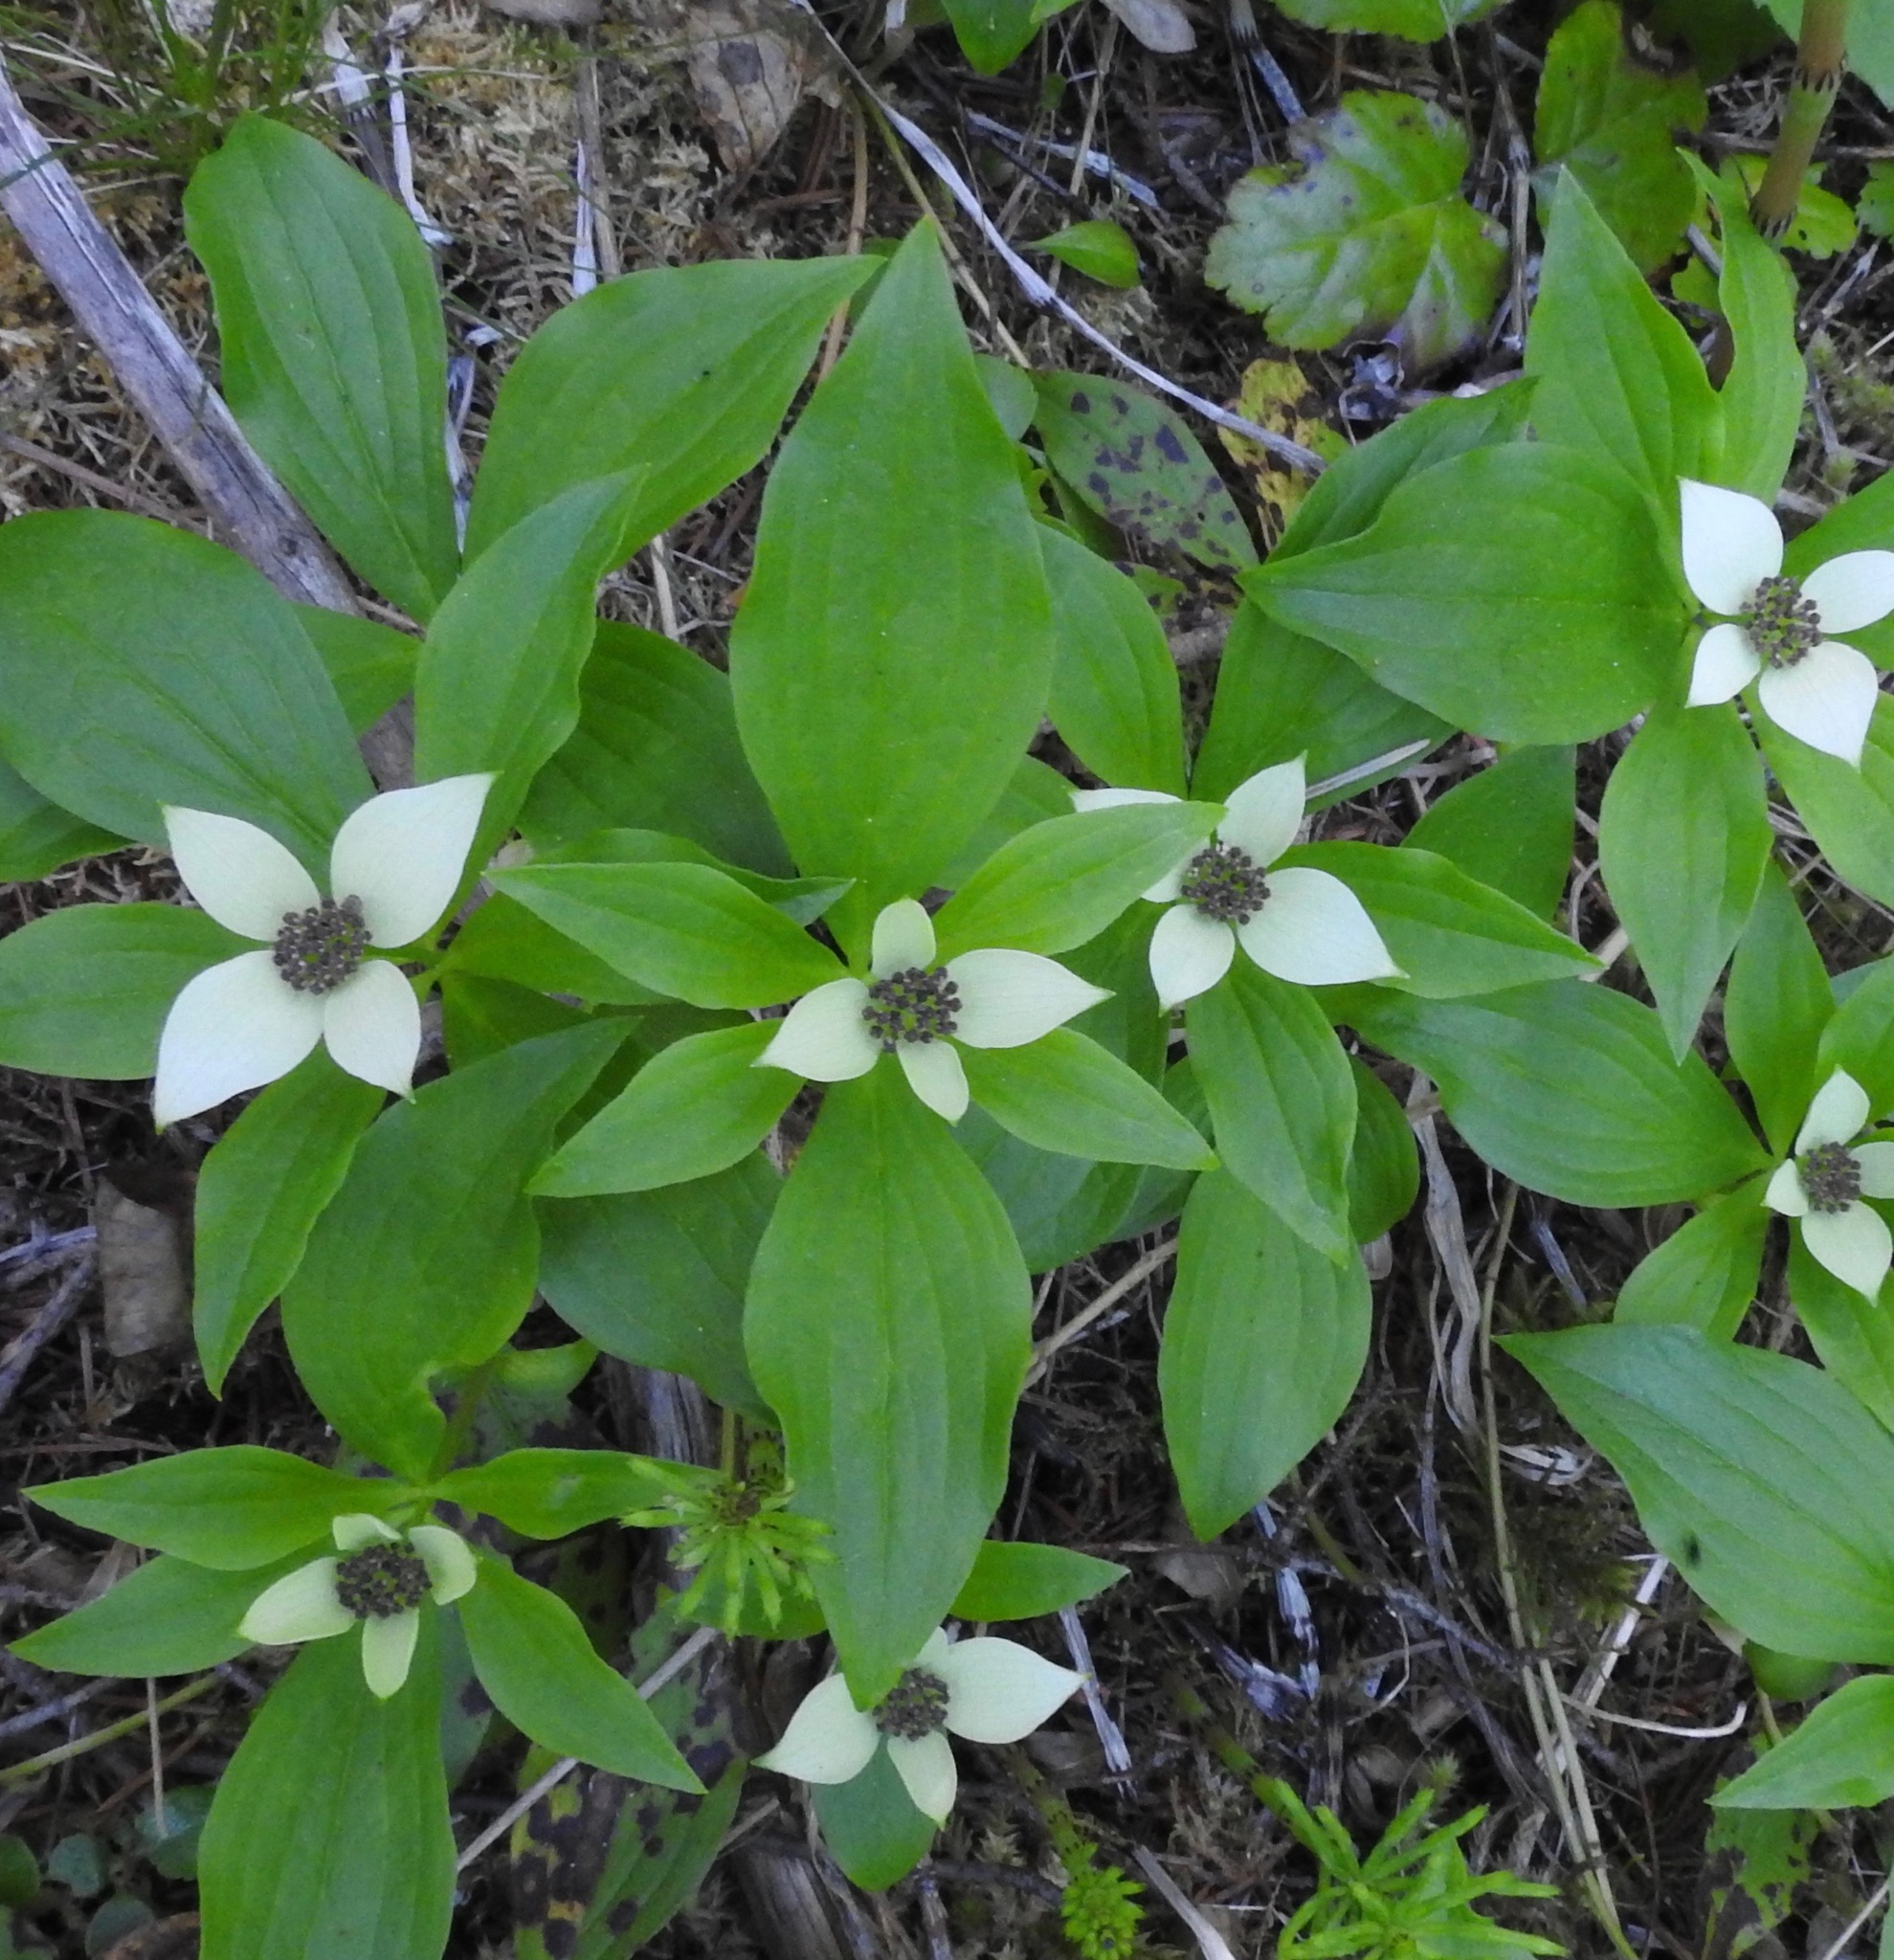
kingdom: Plantae
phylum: Tracheophyta
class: Magnoliopsida
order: Cornales
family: Cornaceae
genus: Cornus
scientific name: Cornus unalaschkensis
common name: Alaska bunchberry
